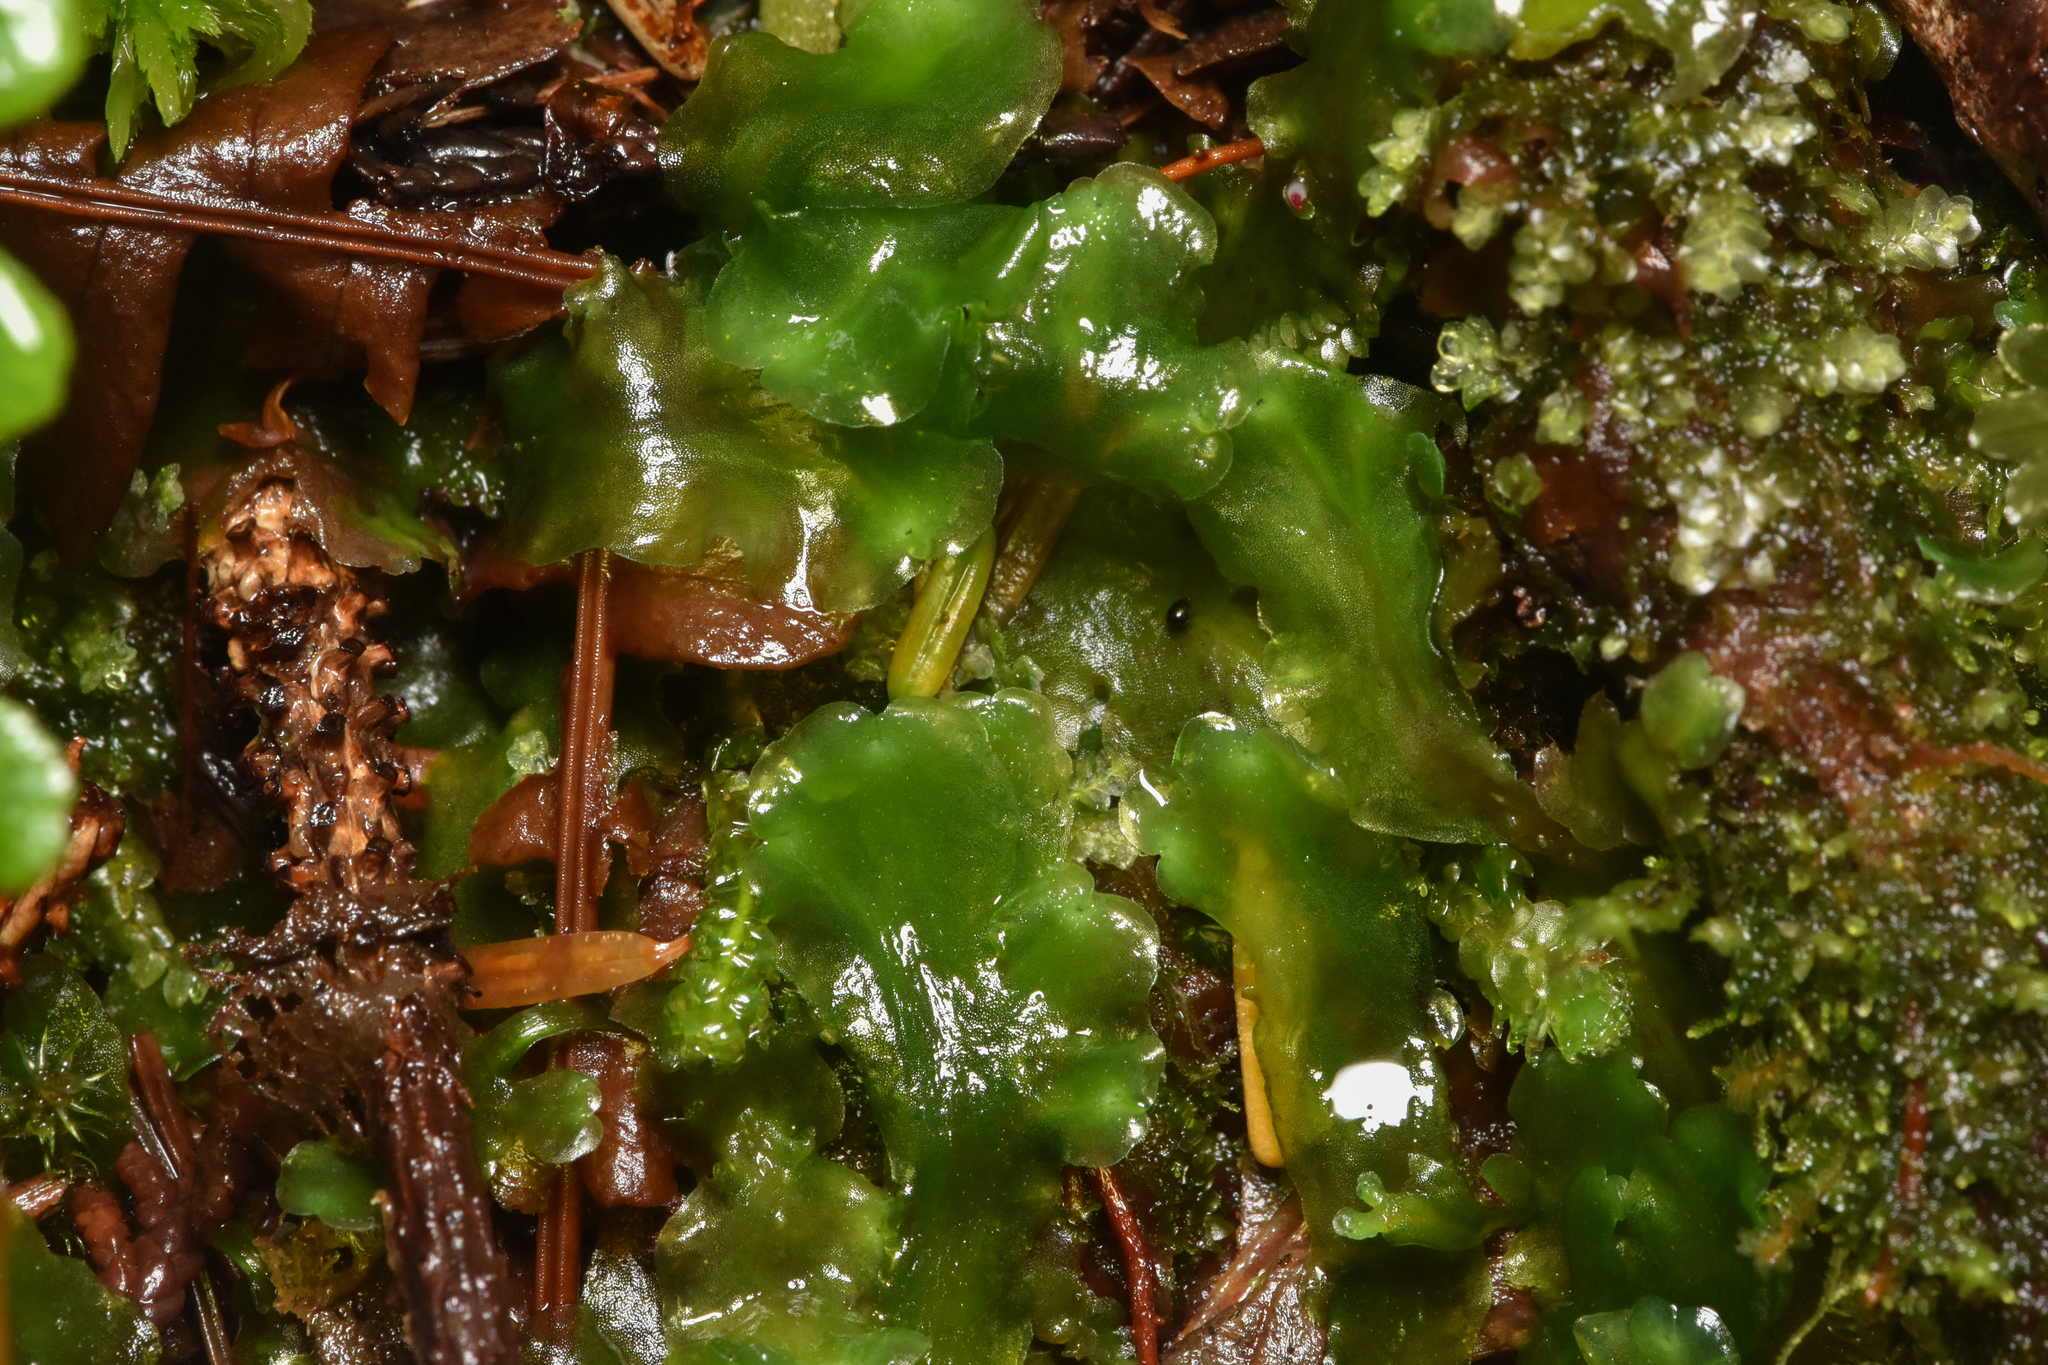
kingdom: Plantae
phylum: Marchantiophyta
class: Jungermanniopsida
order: Pelliales
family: Pelliaceae
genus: Pellia
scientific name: Pellia neesiana
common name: Nees  pellia
